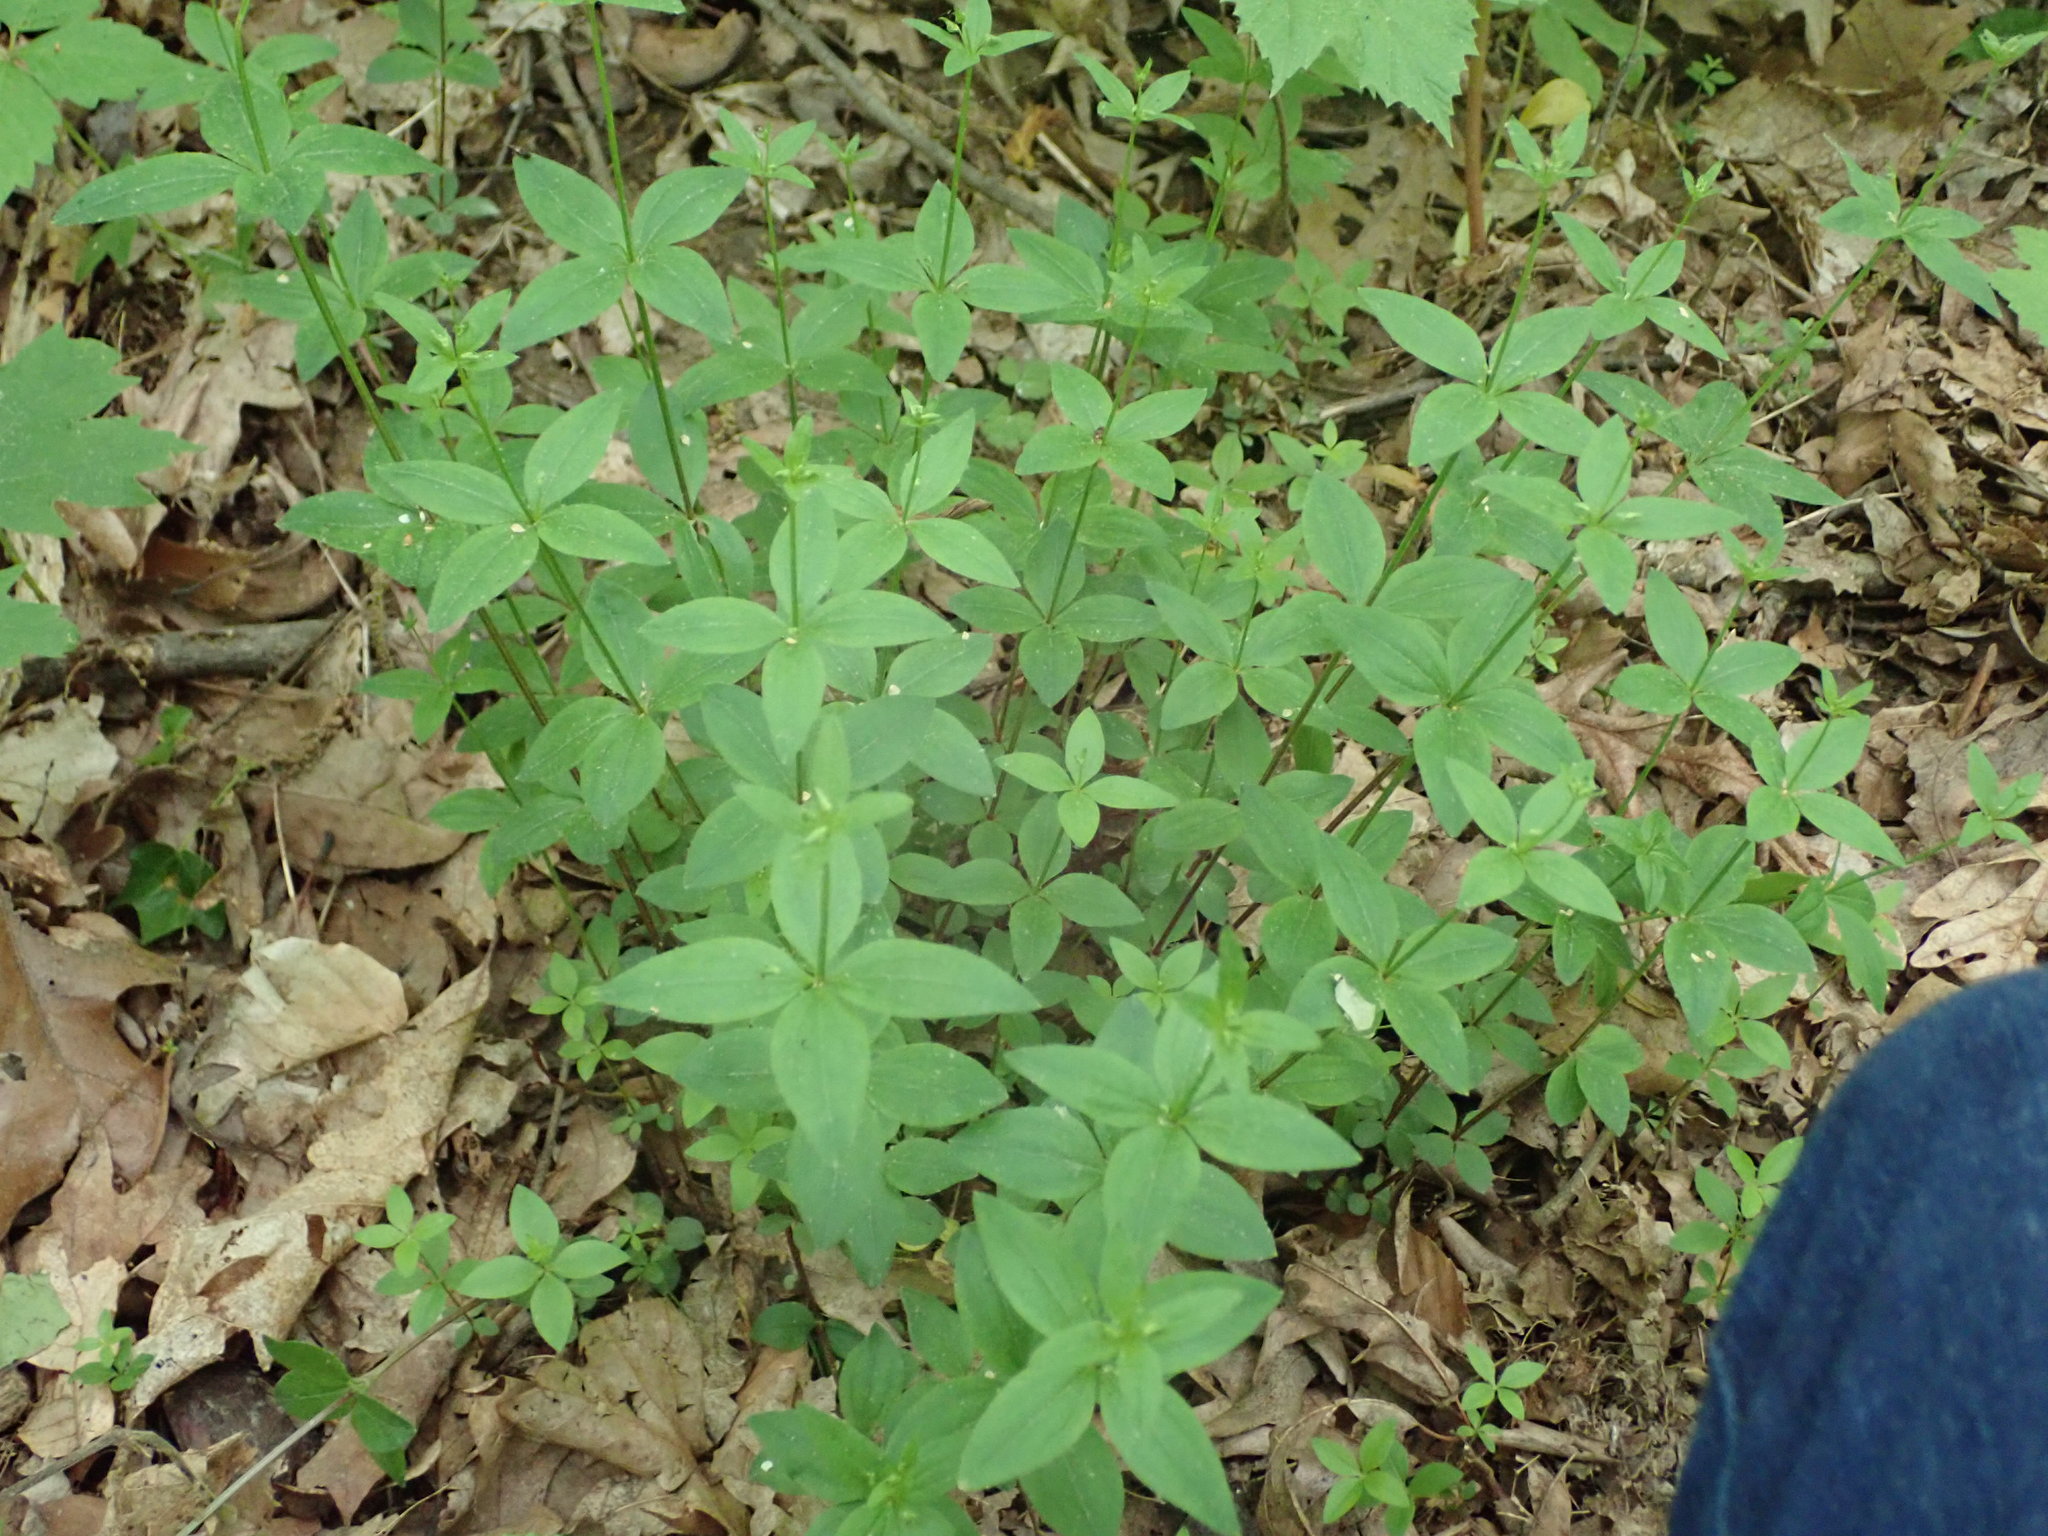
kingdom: Plantae
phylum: Tracheophyta
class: Magnoliopsida
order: Gentianales
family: Rubiaceae
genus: Galium
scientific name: Galium circaezans
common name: Forest bedstraw
